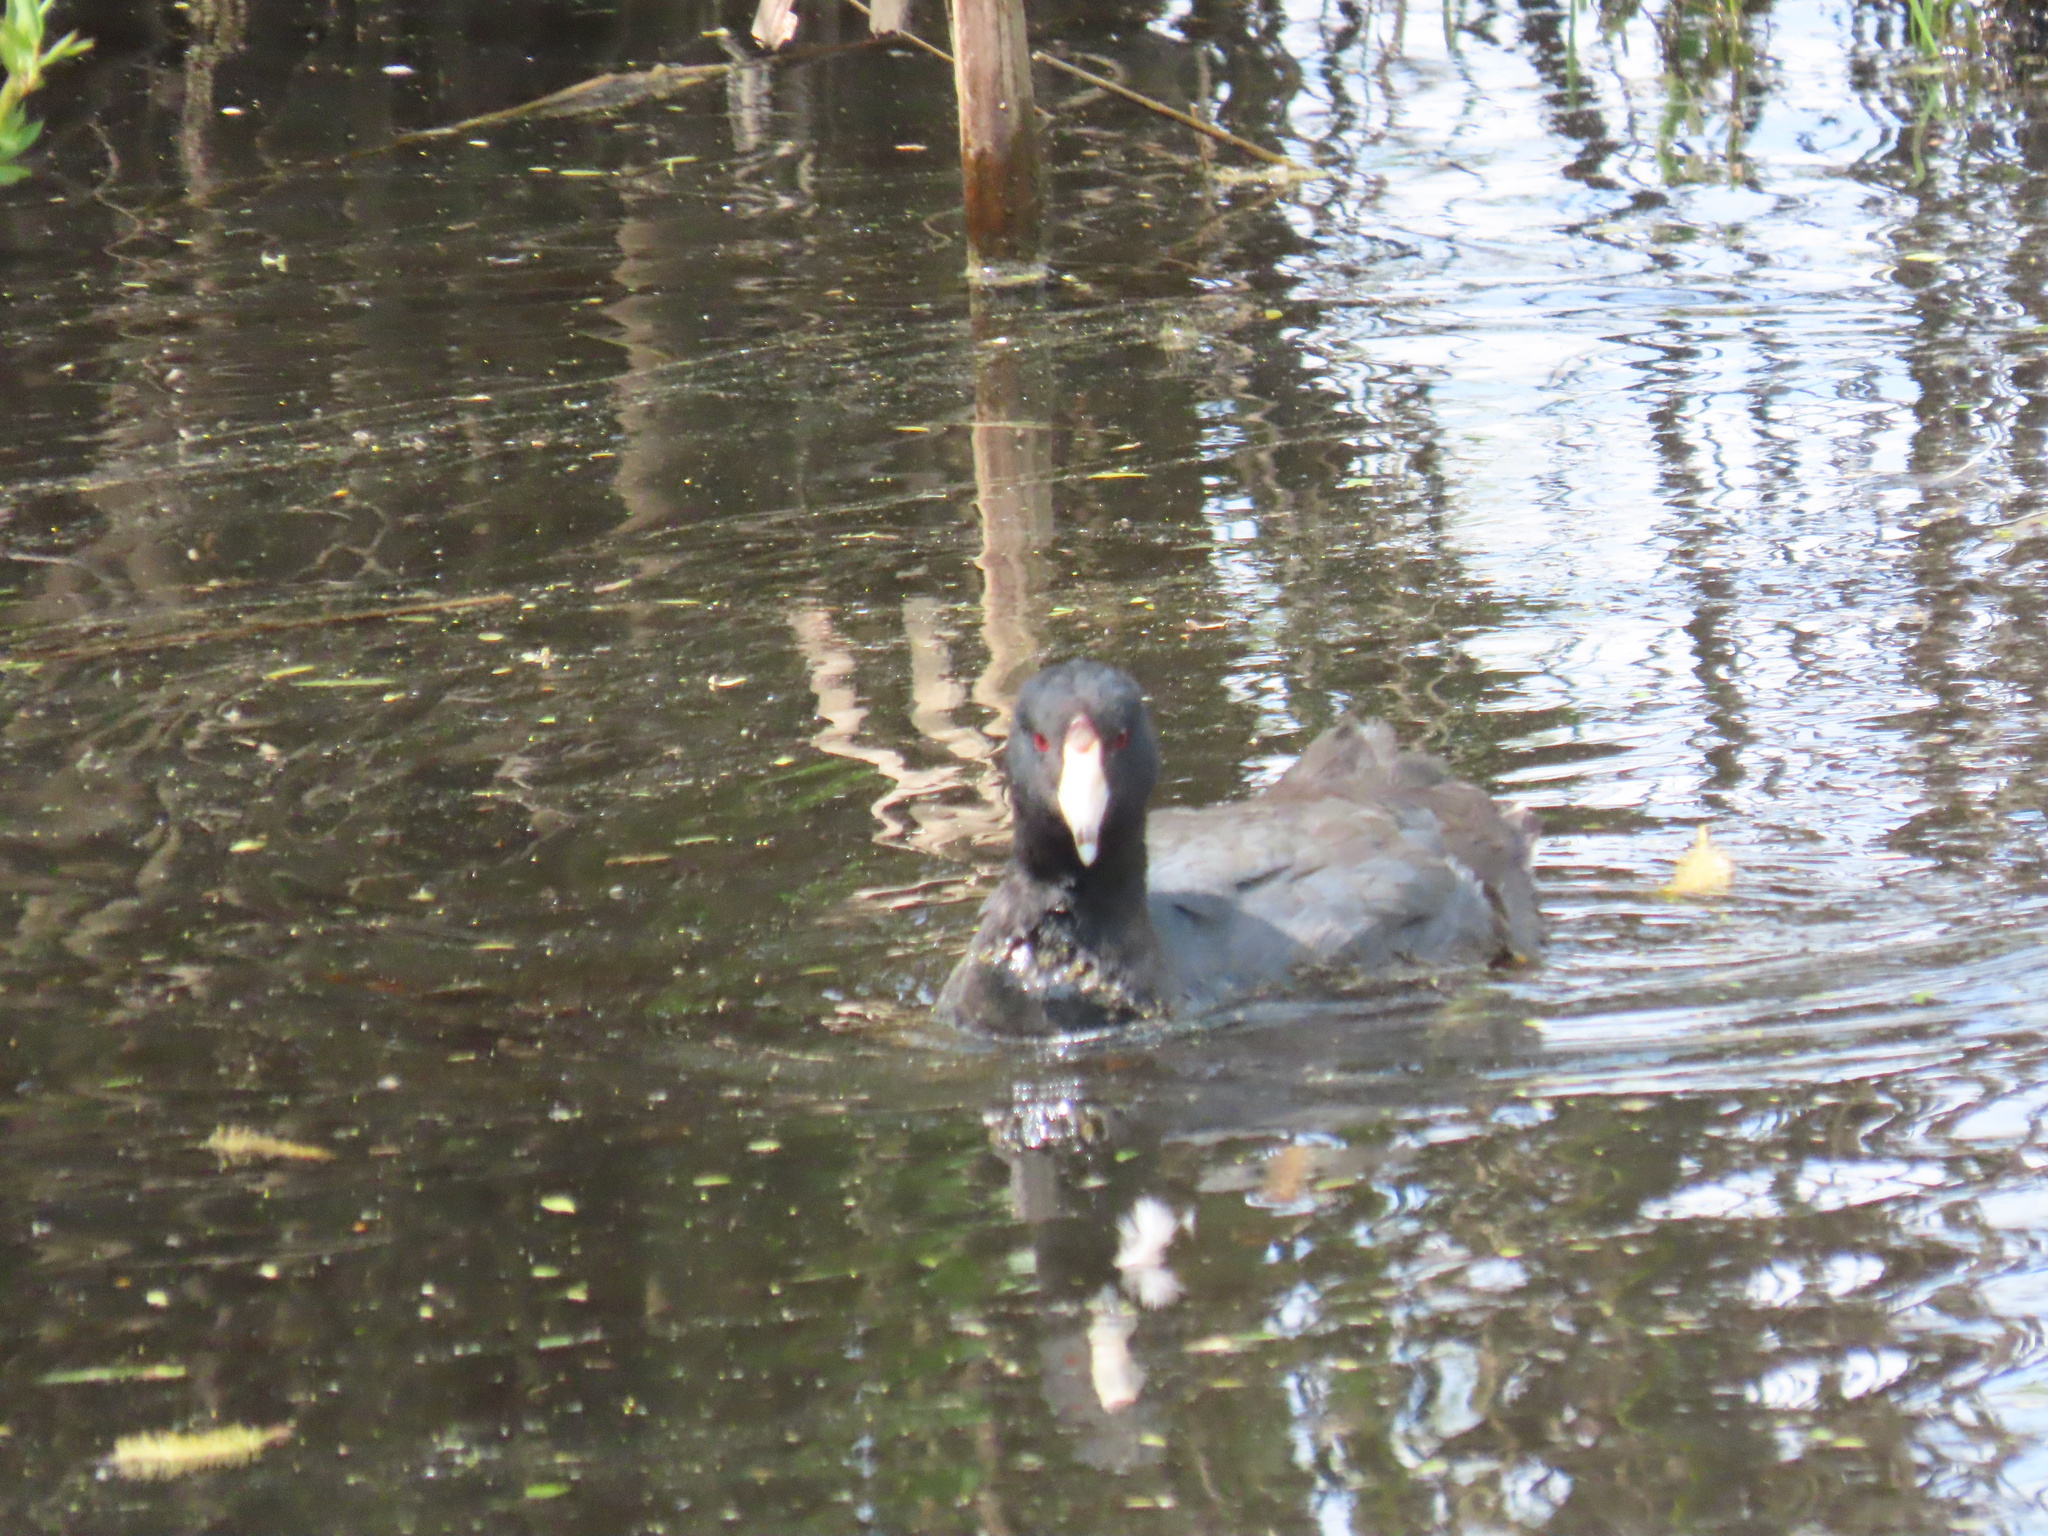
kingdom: Animalia
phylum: Chordata
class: Aves
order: Gruiformes
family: Rallidae
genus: Fulica
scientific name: Fulica americana
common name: American coot
